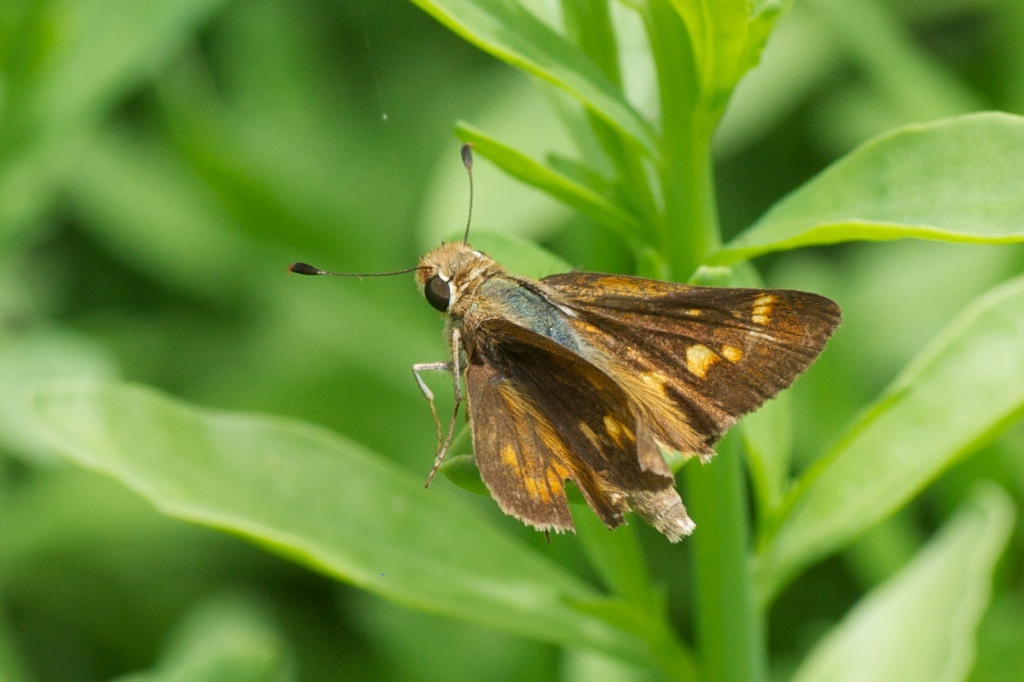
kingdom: Animalia
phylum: Arthropoda
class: Insecta
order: Lepidoptera
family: Hesperiidae
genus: Lon
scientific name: Lon melane
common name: Umber skipper
